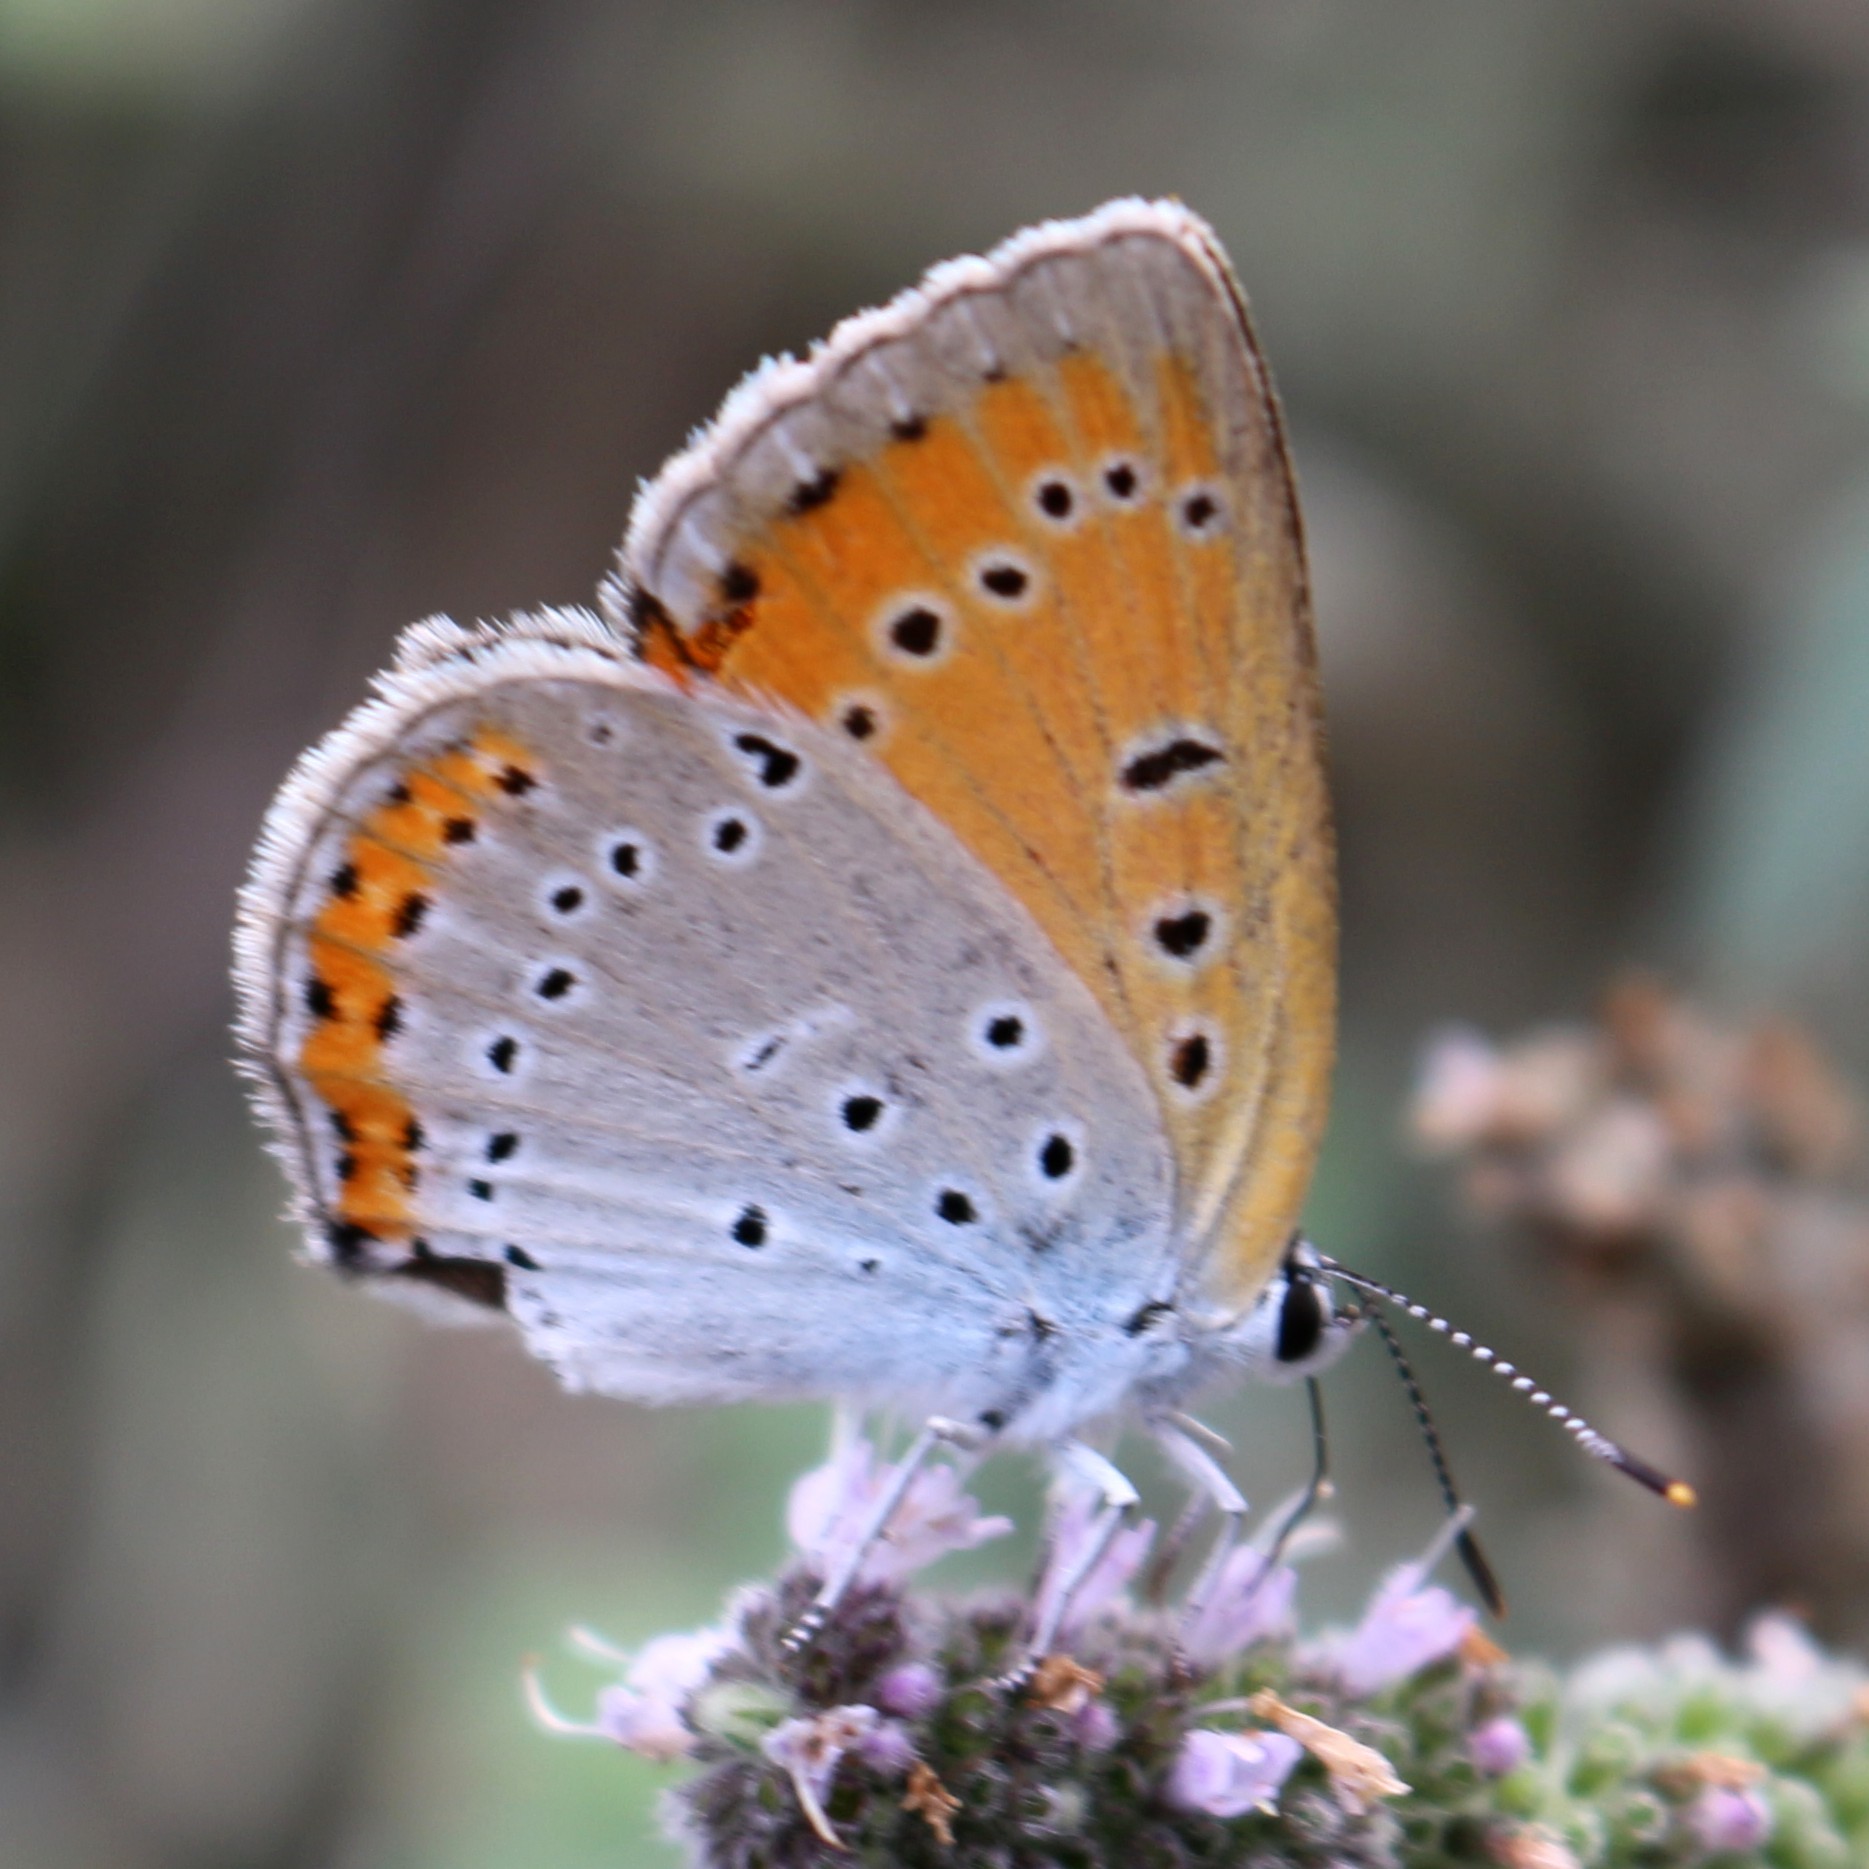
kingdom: Animalia
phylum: Arthropoda
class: Insecta
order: Lepidoptera
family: Lycaenidae
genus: Lycaena
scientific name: Lycaena dispar
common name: Large copper
